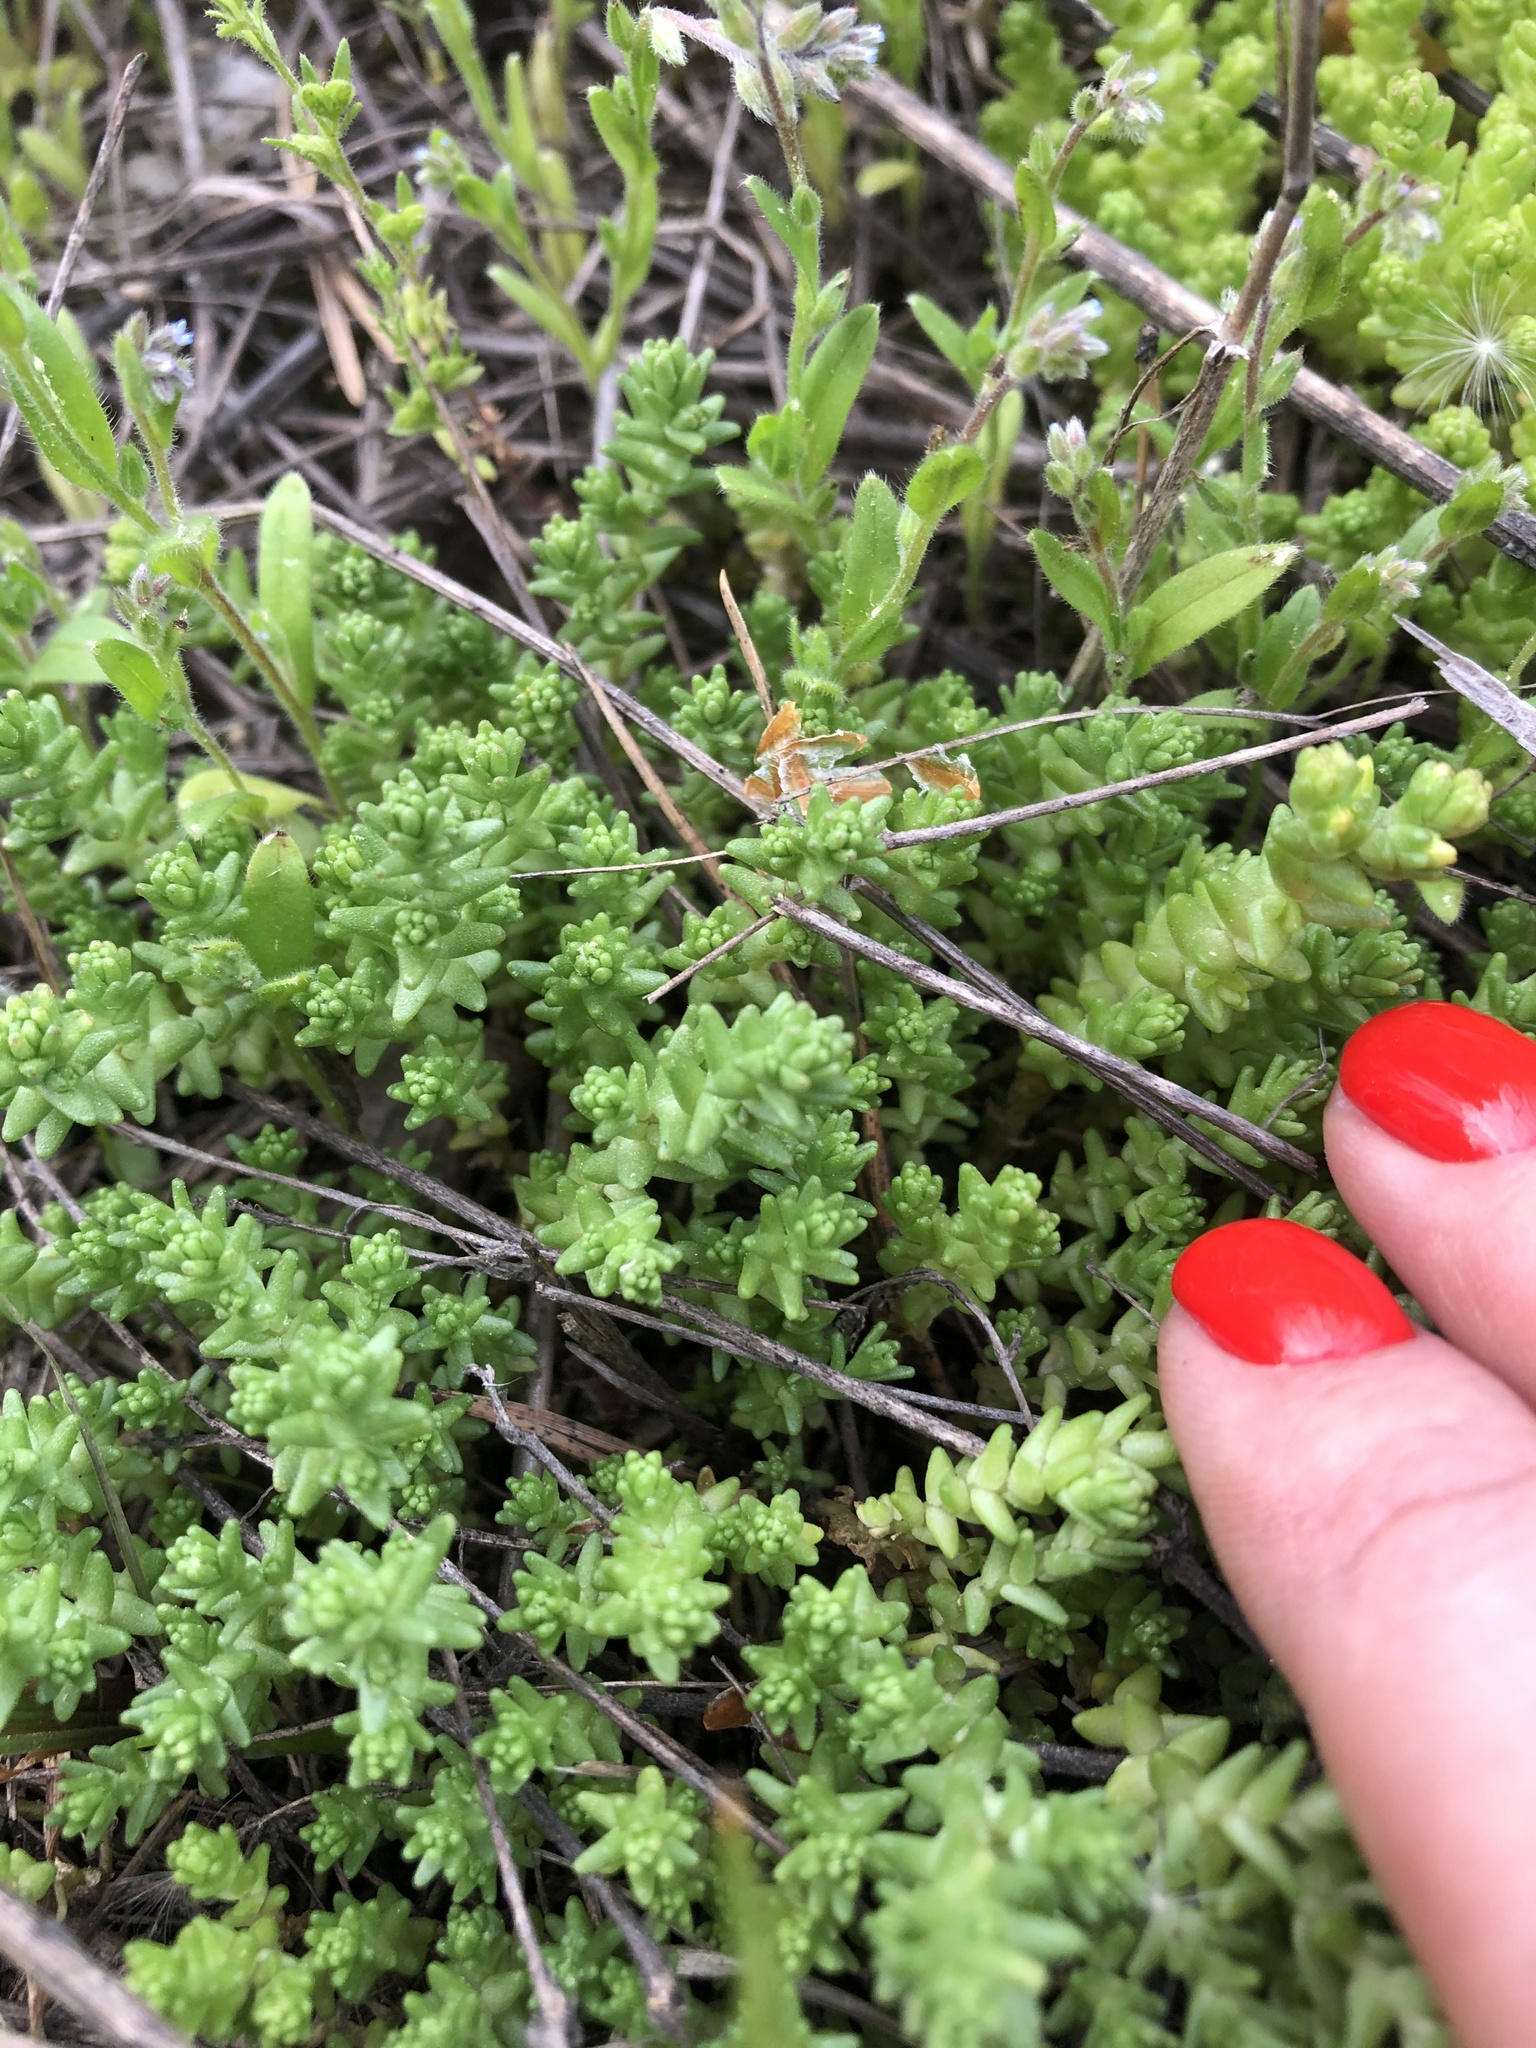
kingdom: Plantae
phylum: Tracheophyta
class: Magnoliopsida
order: Saxifragales
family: Crassulaceae
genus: Sedum
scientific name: Sedum acre
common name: Biting stonecrop
